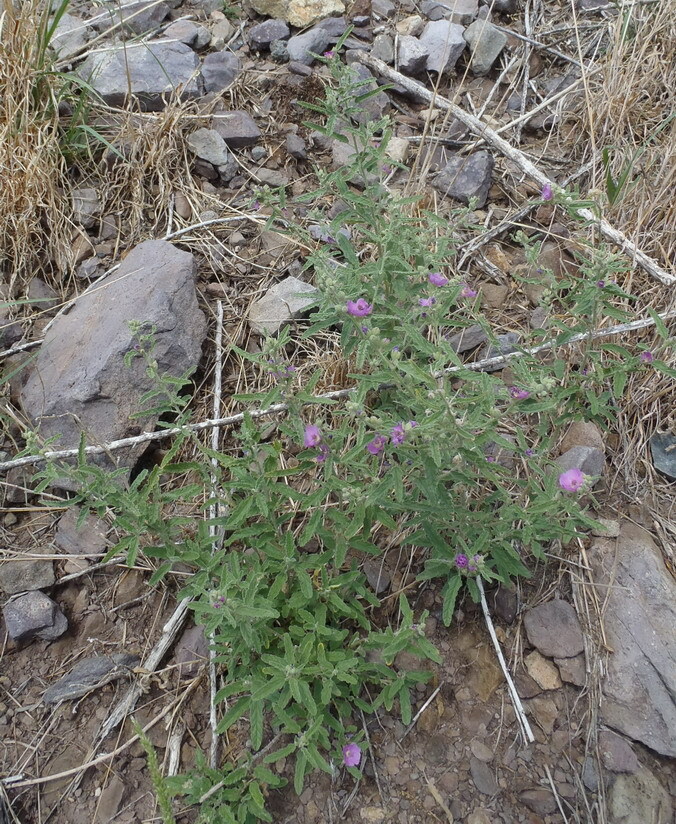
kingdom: Plantae
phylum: Tracheophyta
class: Magnoliopsida
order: Malvales
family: Malvaceae
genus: Sphaeralcea
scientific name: Sphaeralcea angustifolia
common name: Copper globe-mallow
